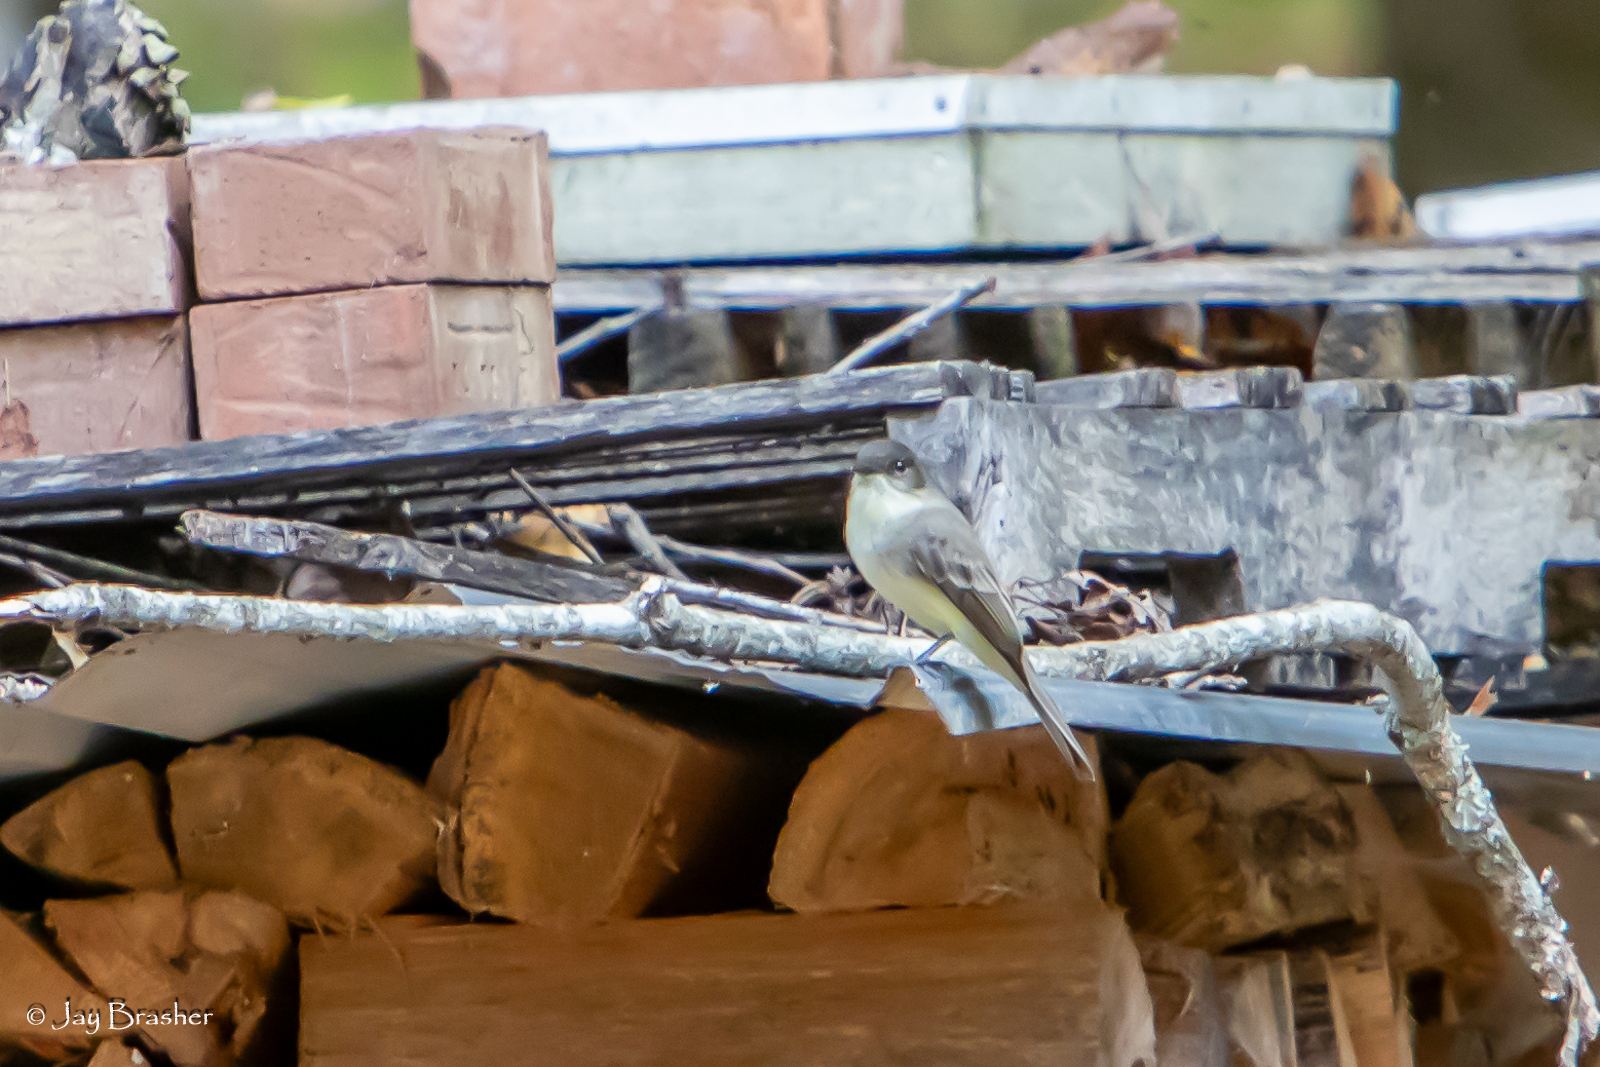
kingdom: Animalia
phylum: Chordata
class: Aves
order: Passeriformes
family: Tyrannidae
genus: Sayornis
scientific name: Sayornis phoebe
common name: Eastern phoebe
